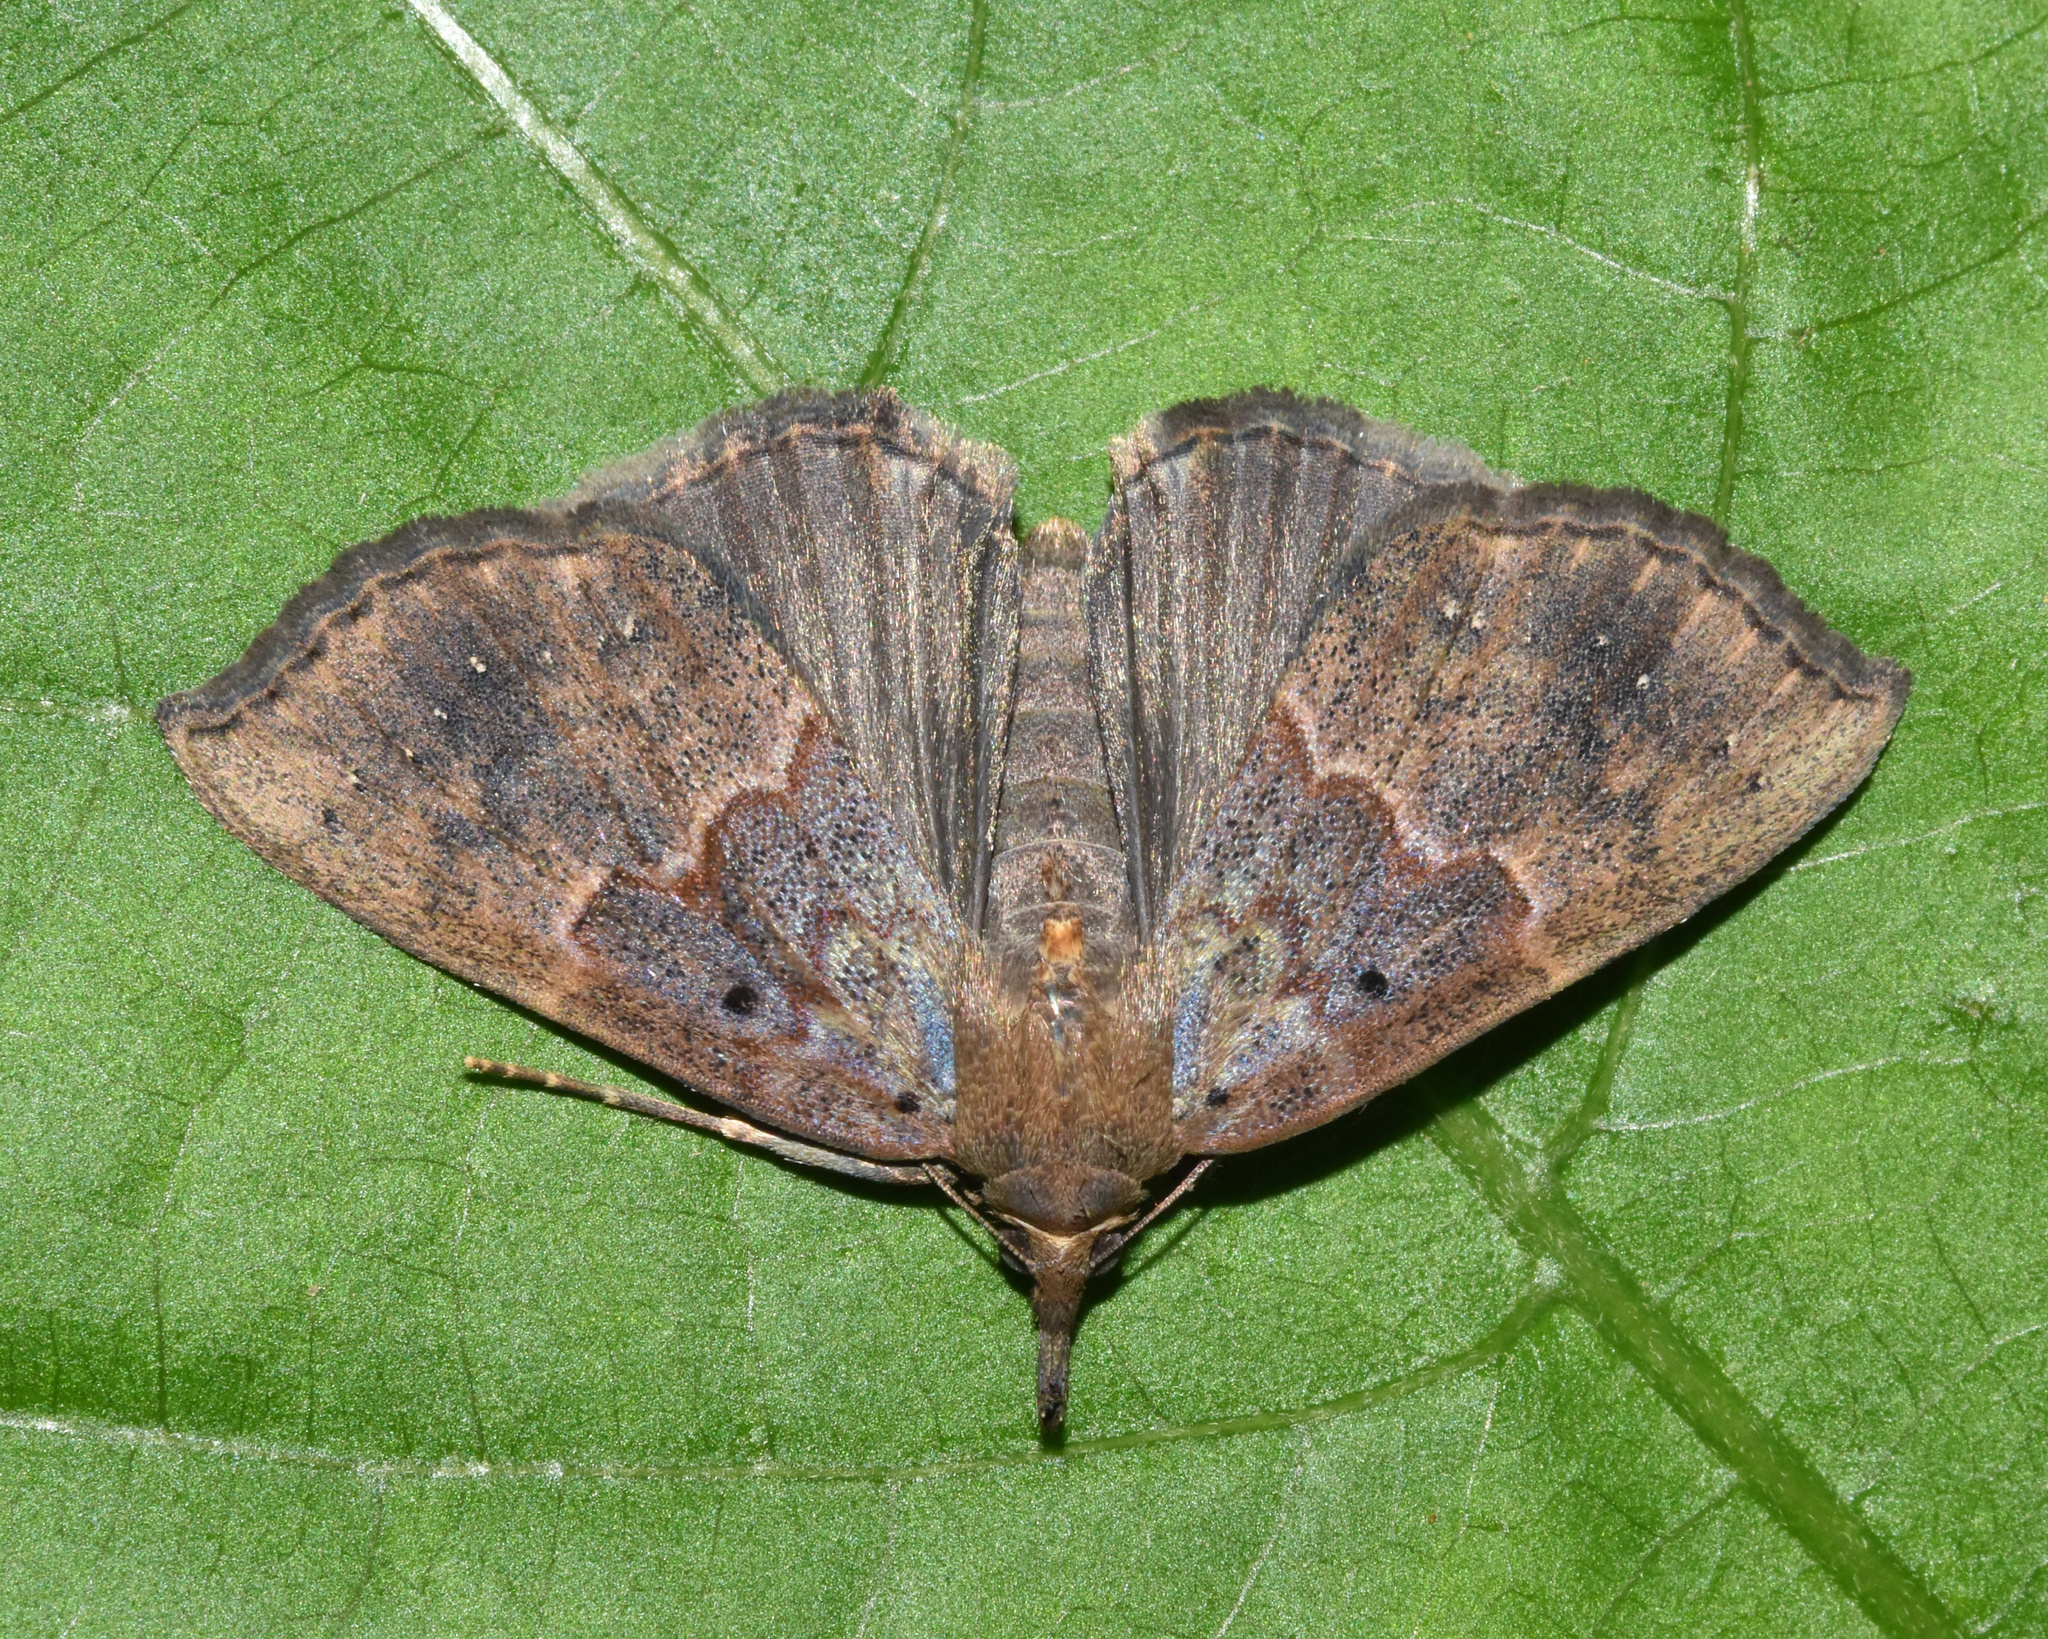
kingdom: Animalia
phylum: Arthropoda
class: Insecta
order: Lepidoptera
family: Erebidae
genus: Hypena
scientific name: Hypena holophaea
